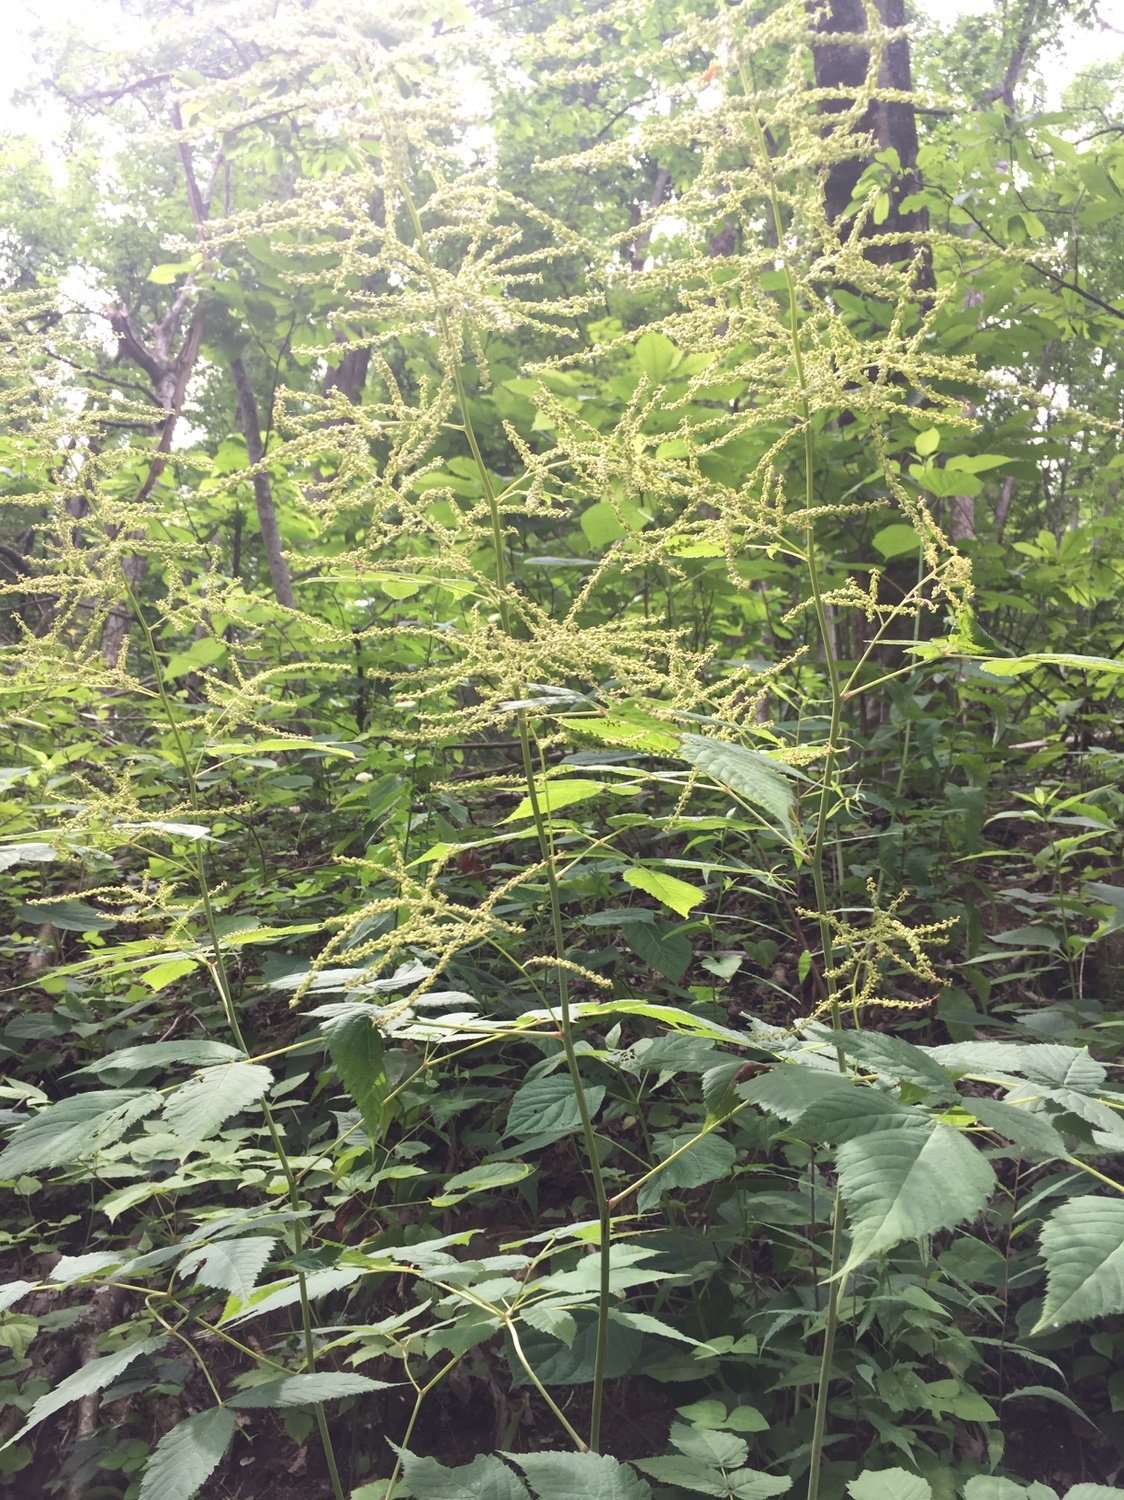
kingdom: Plantae
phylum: Tracheophyta
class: Magnoliopsida
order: Rosales
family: Rosaceae
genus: Aruncus
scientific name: Aruncus dioicus
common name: Buck's-beard
